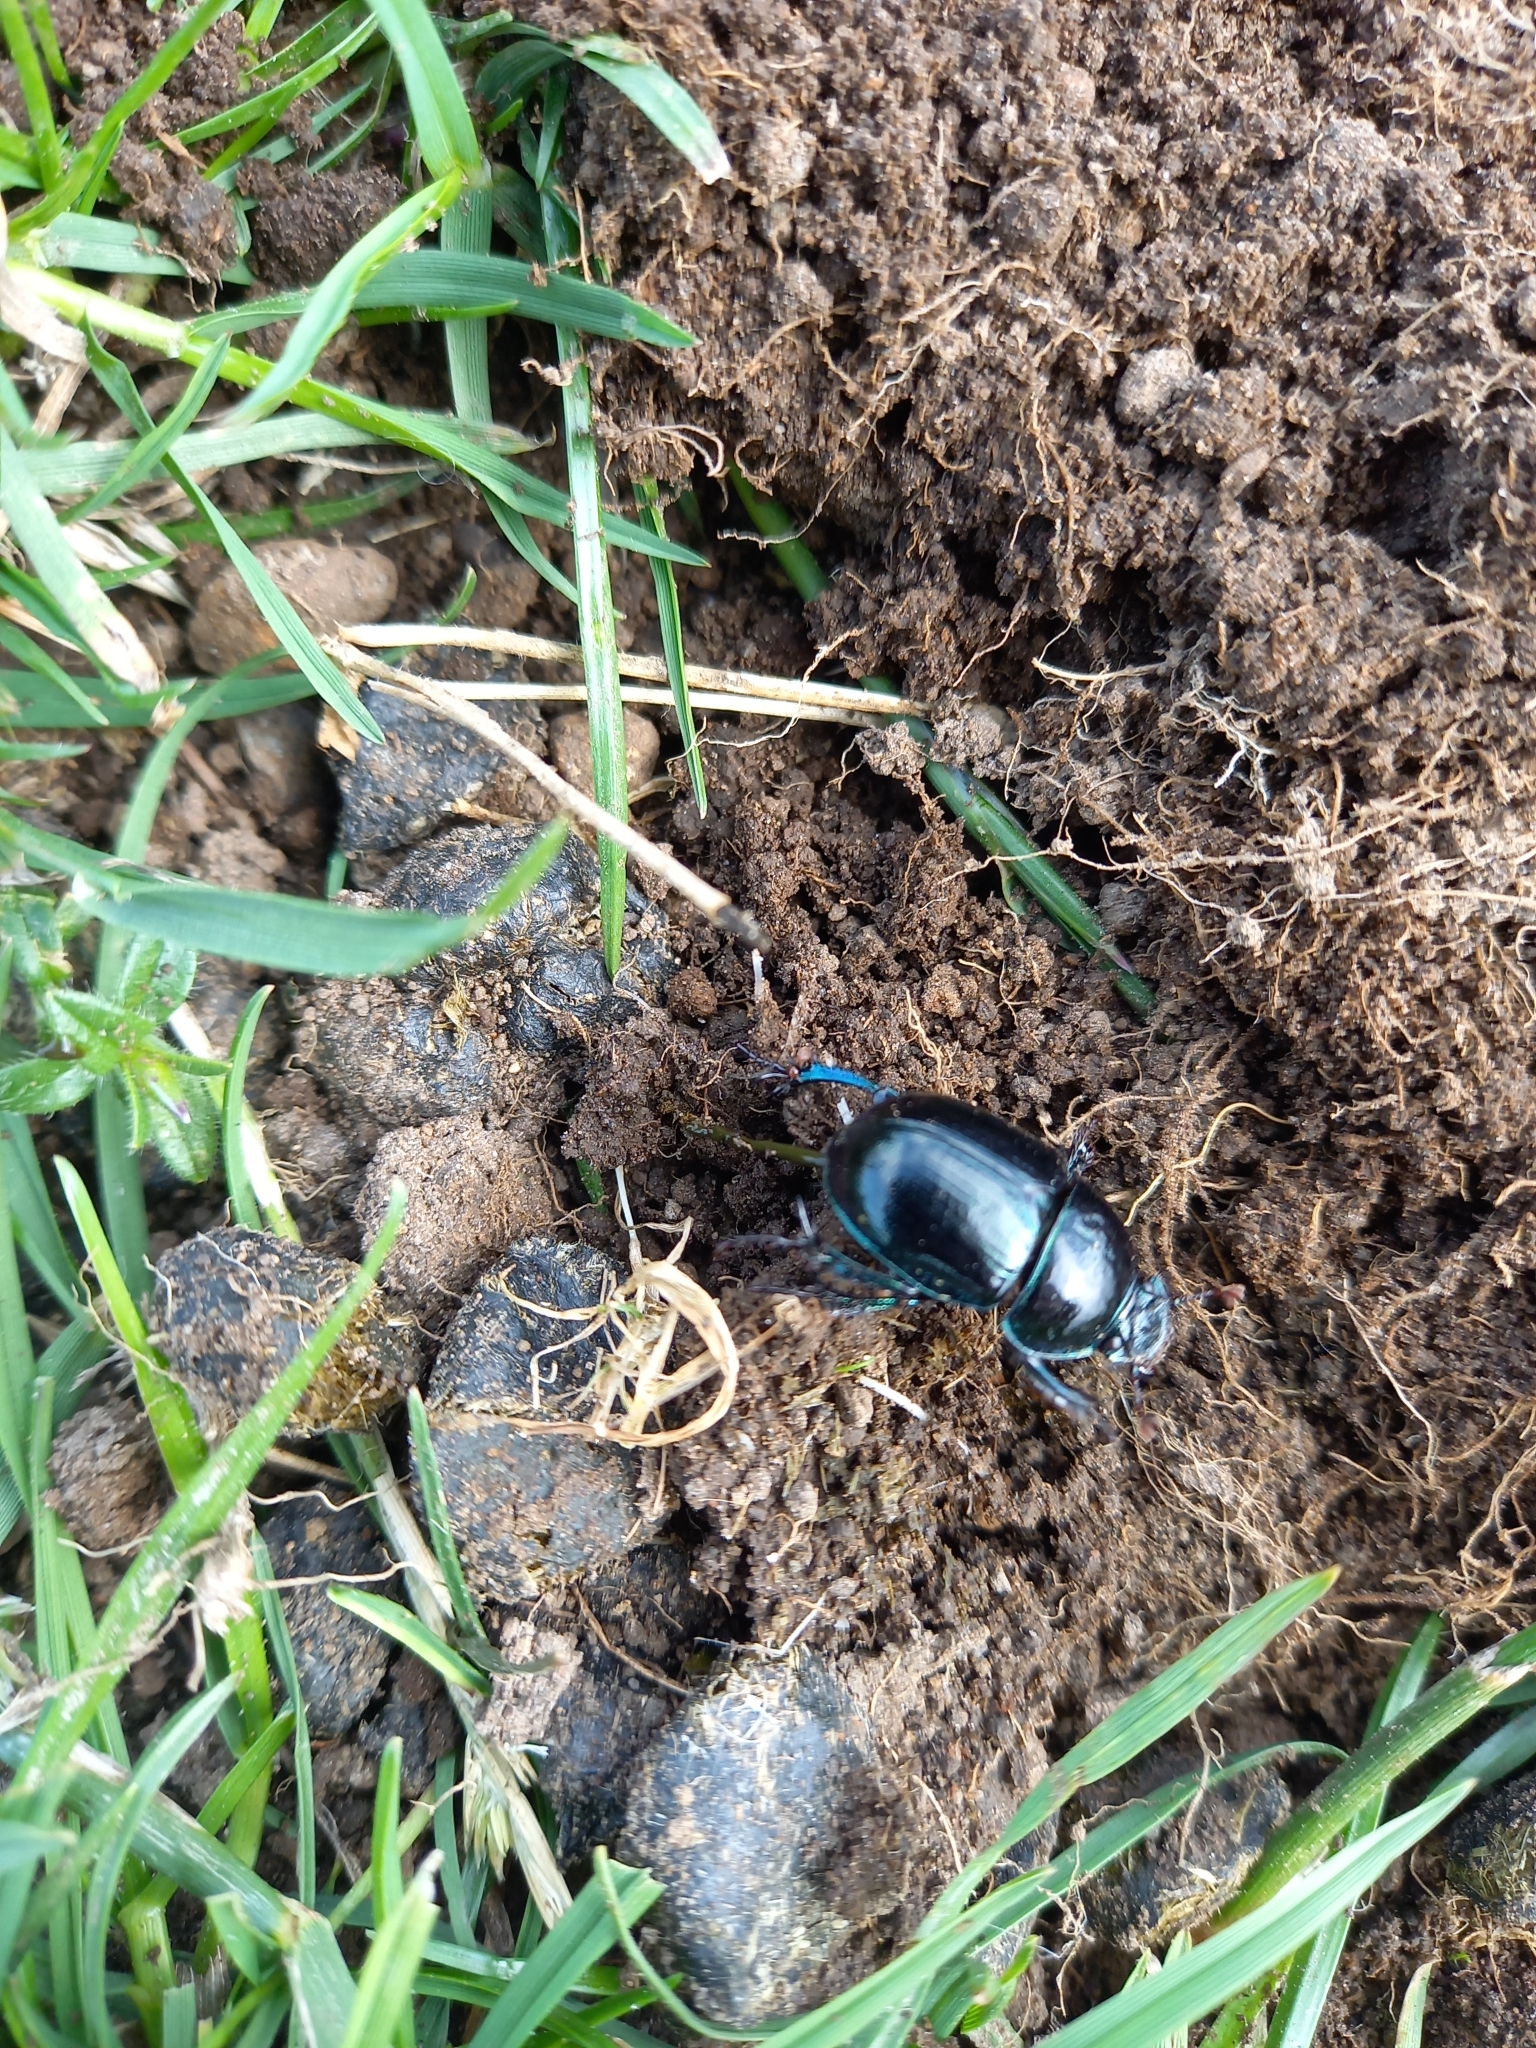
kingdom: Animalia
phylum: Arthropoda
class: Insecta
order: Coleoptera
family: Geotrupidae
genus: Anoplotrupes
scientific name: Anoplotrupes stercorosus
